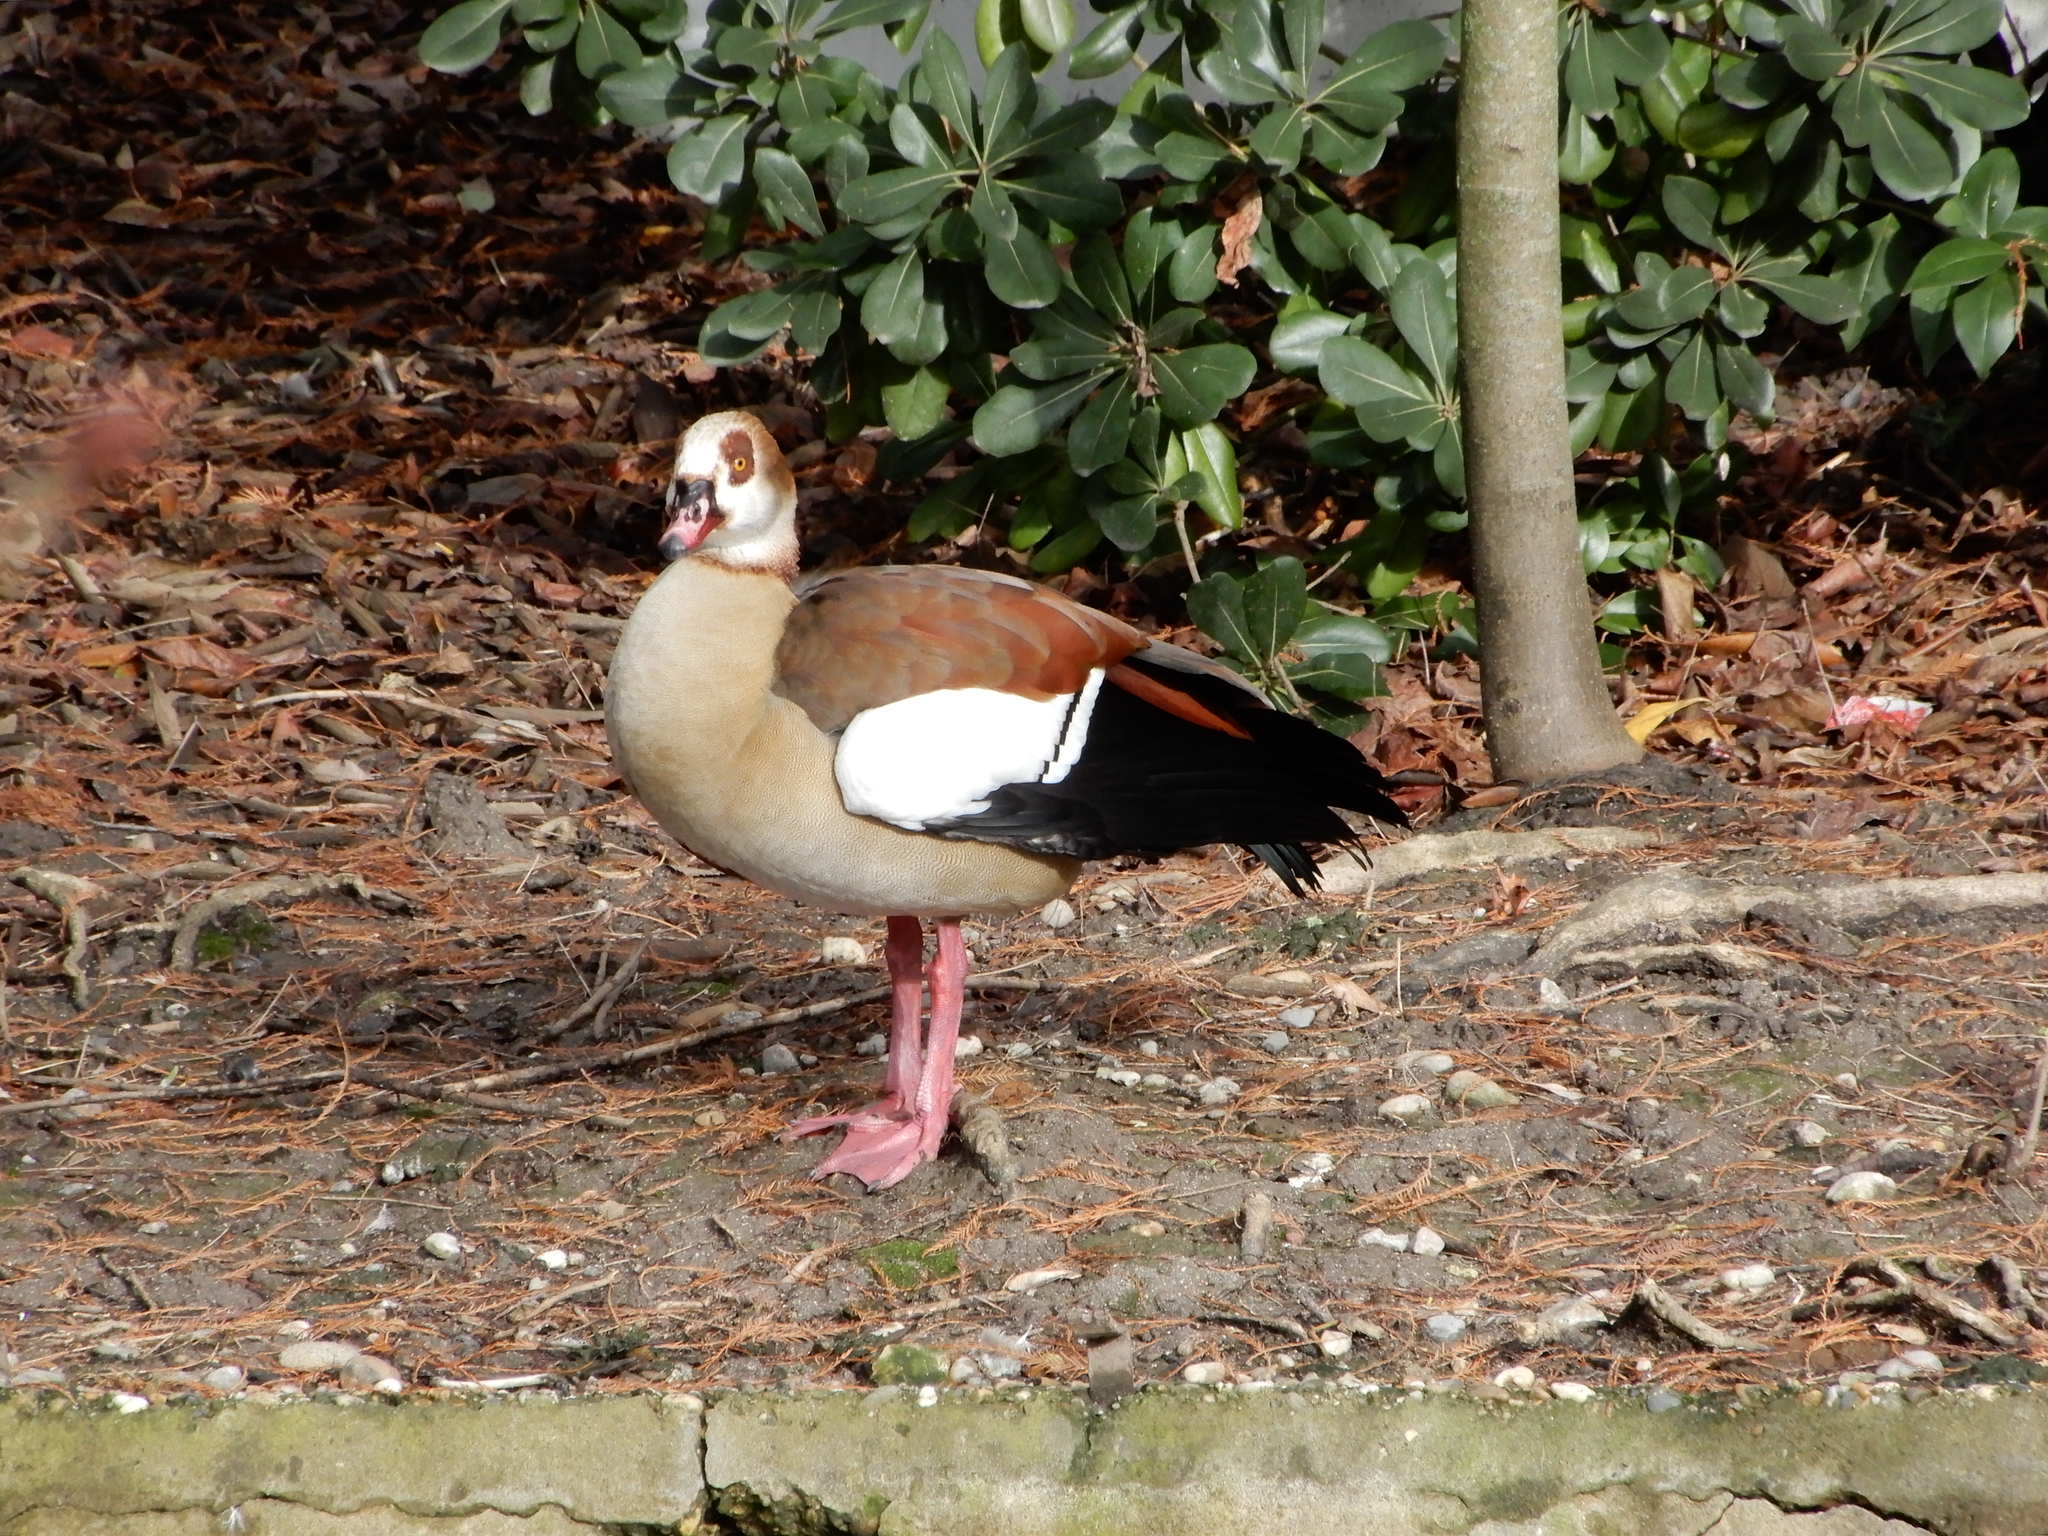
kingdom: Animalia
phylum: Chordata
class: Aves
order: Anseriformes
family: Anatidae
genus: Alopochen
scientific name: Alopochen aegyptiaca
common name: Egyptian goose
